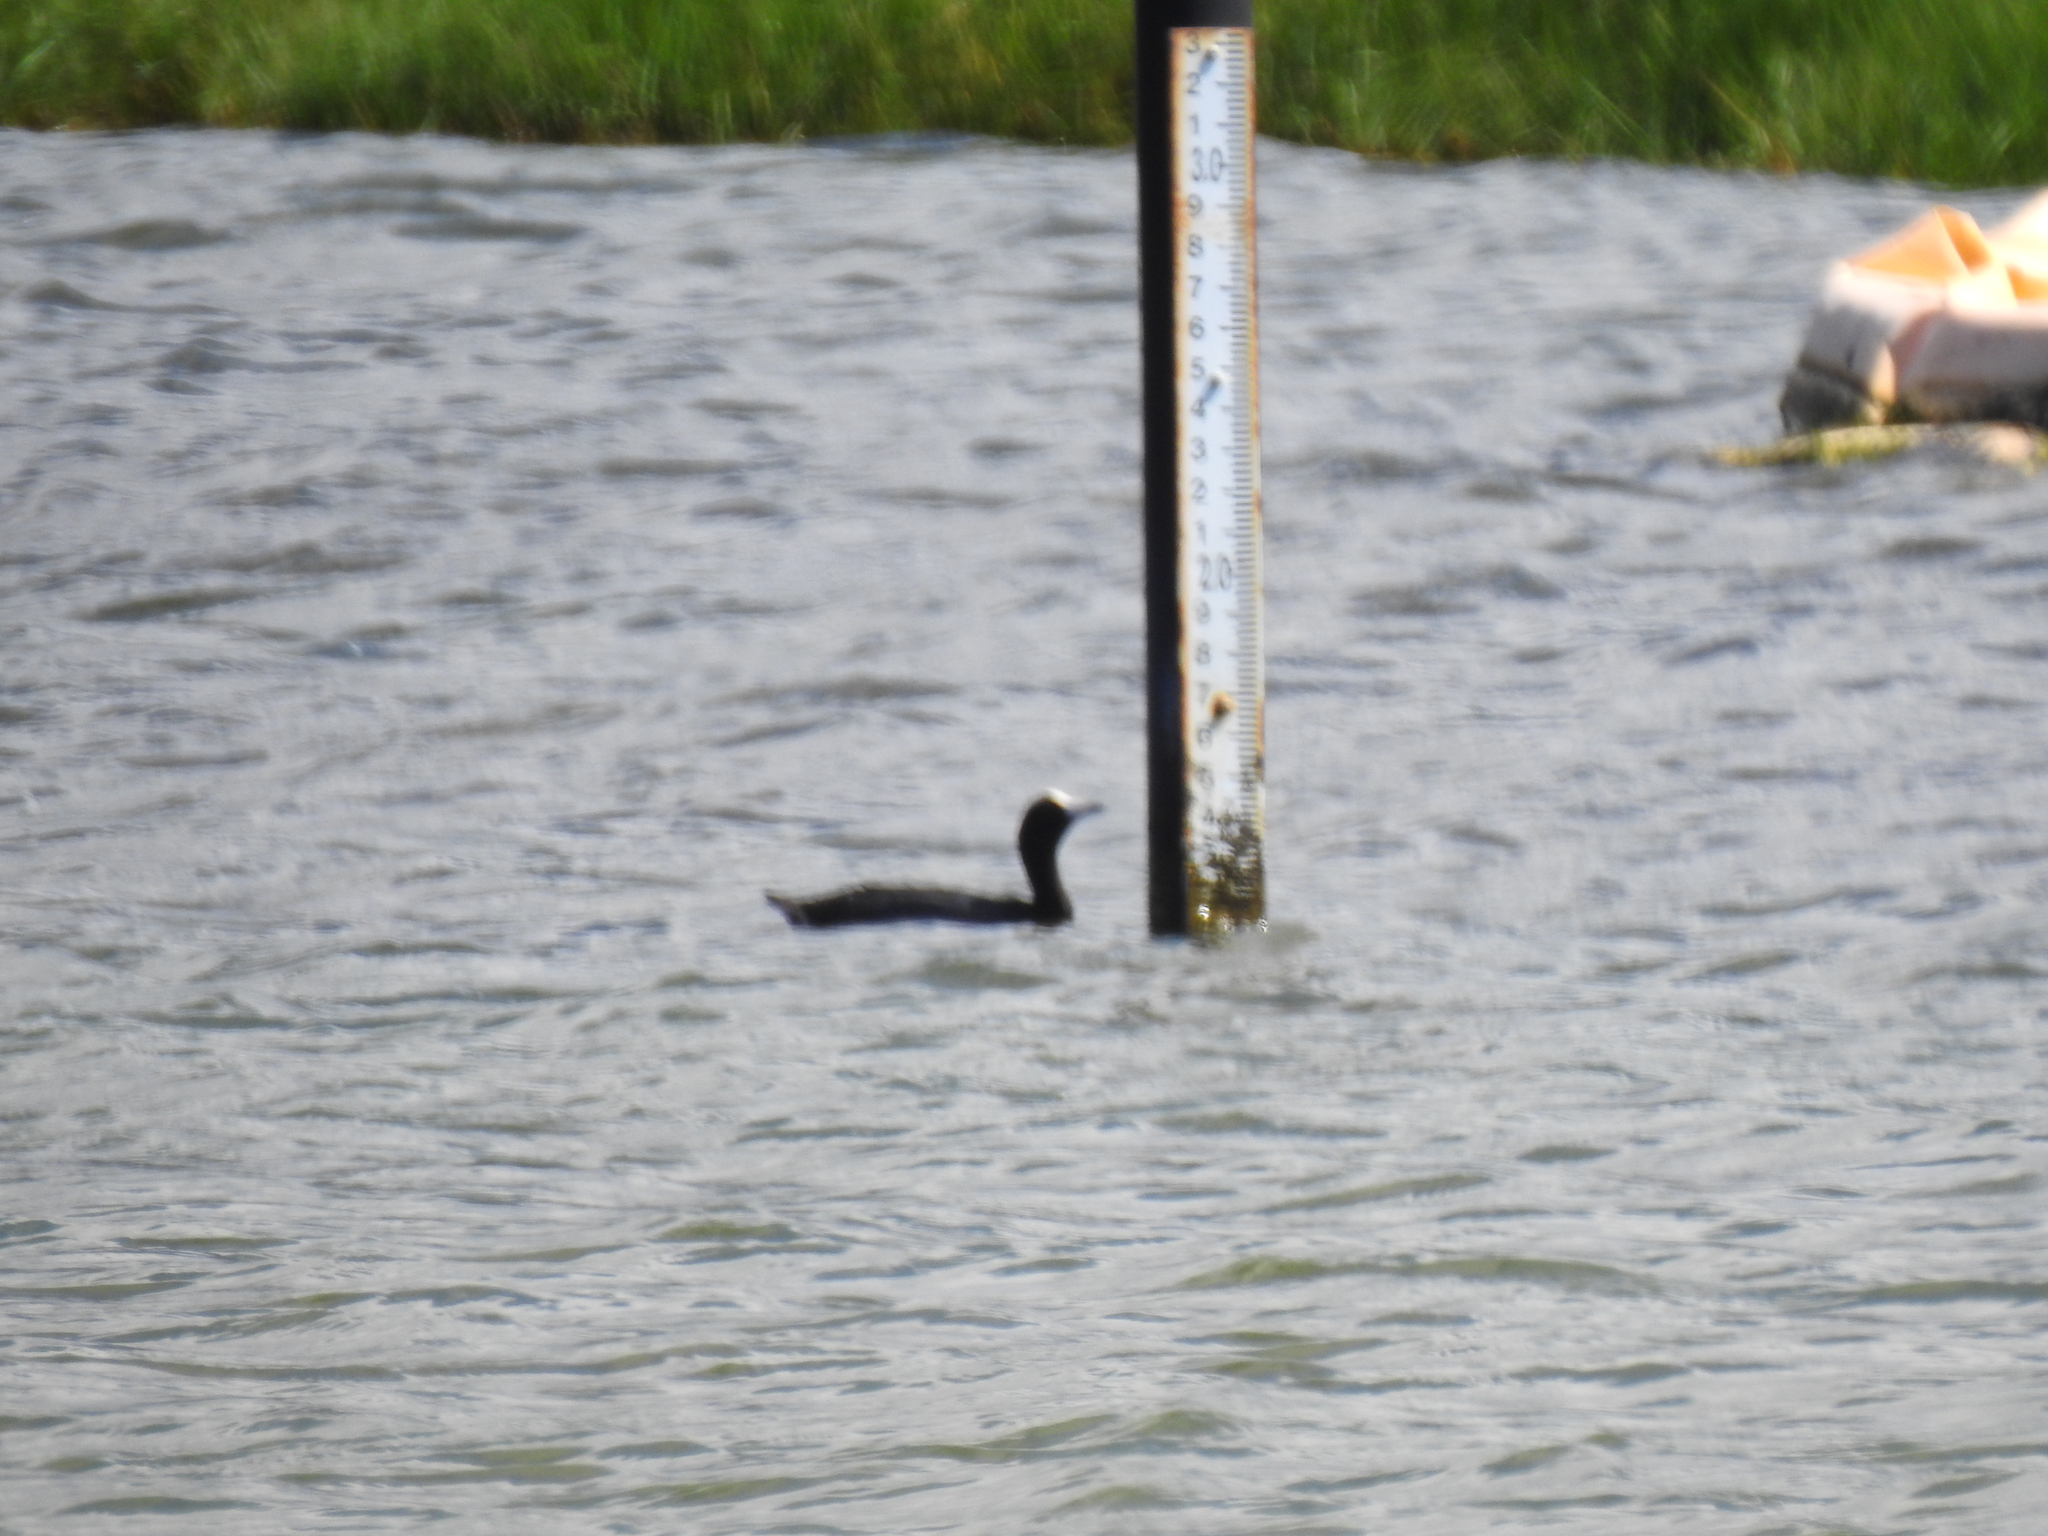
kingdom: Animalia
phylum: Chordata
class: Aves
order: Gruiformes
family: Rallidae
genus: Fulica
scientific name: Fulica alai
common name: Hawaiian coot
